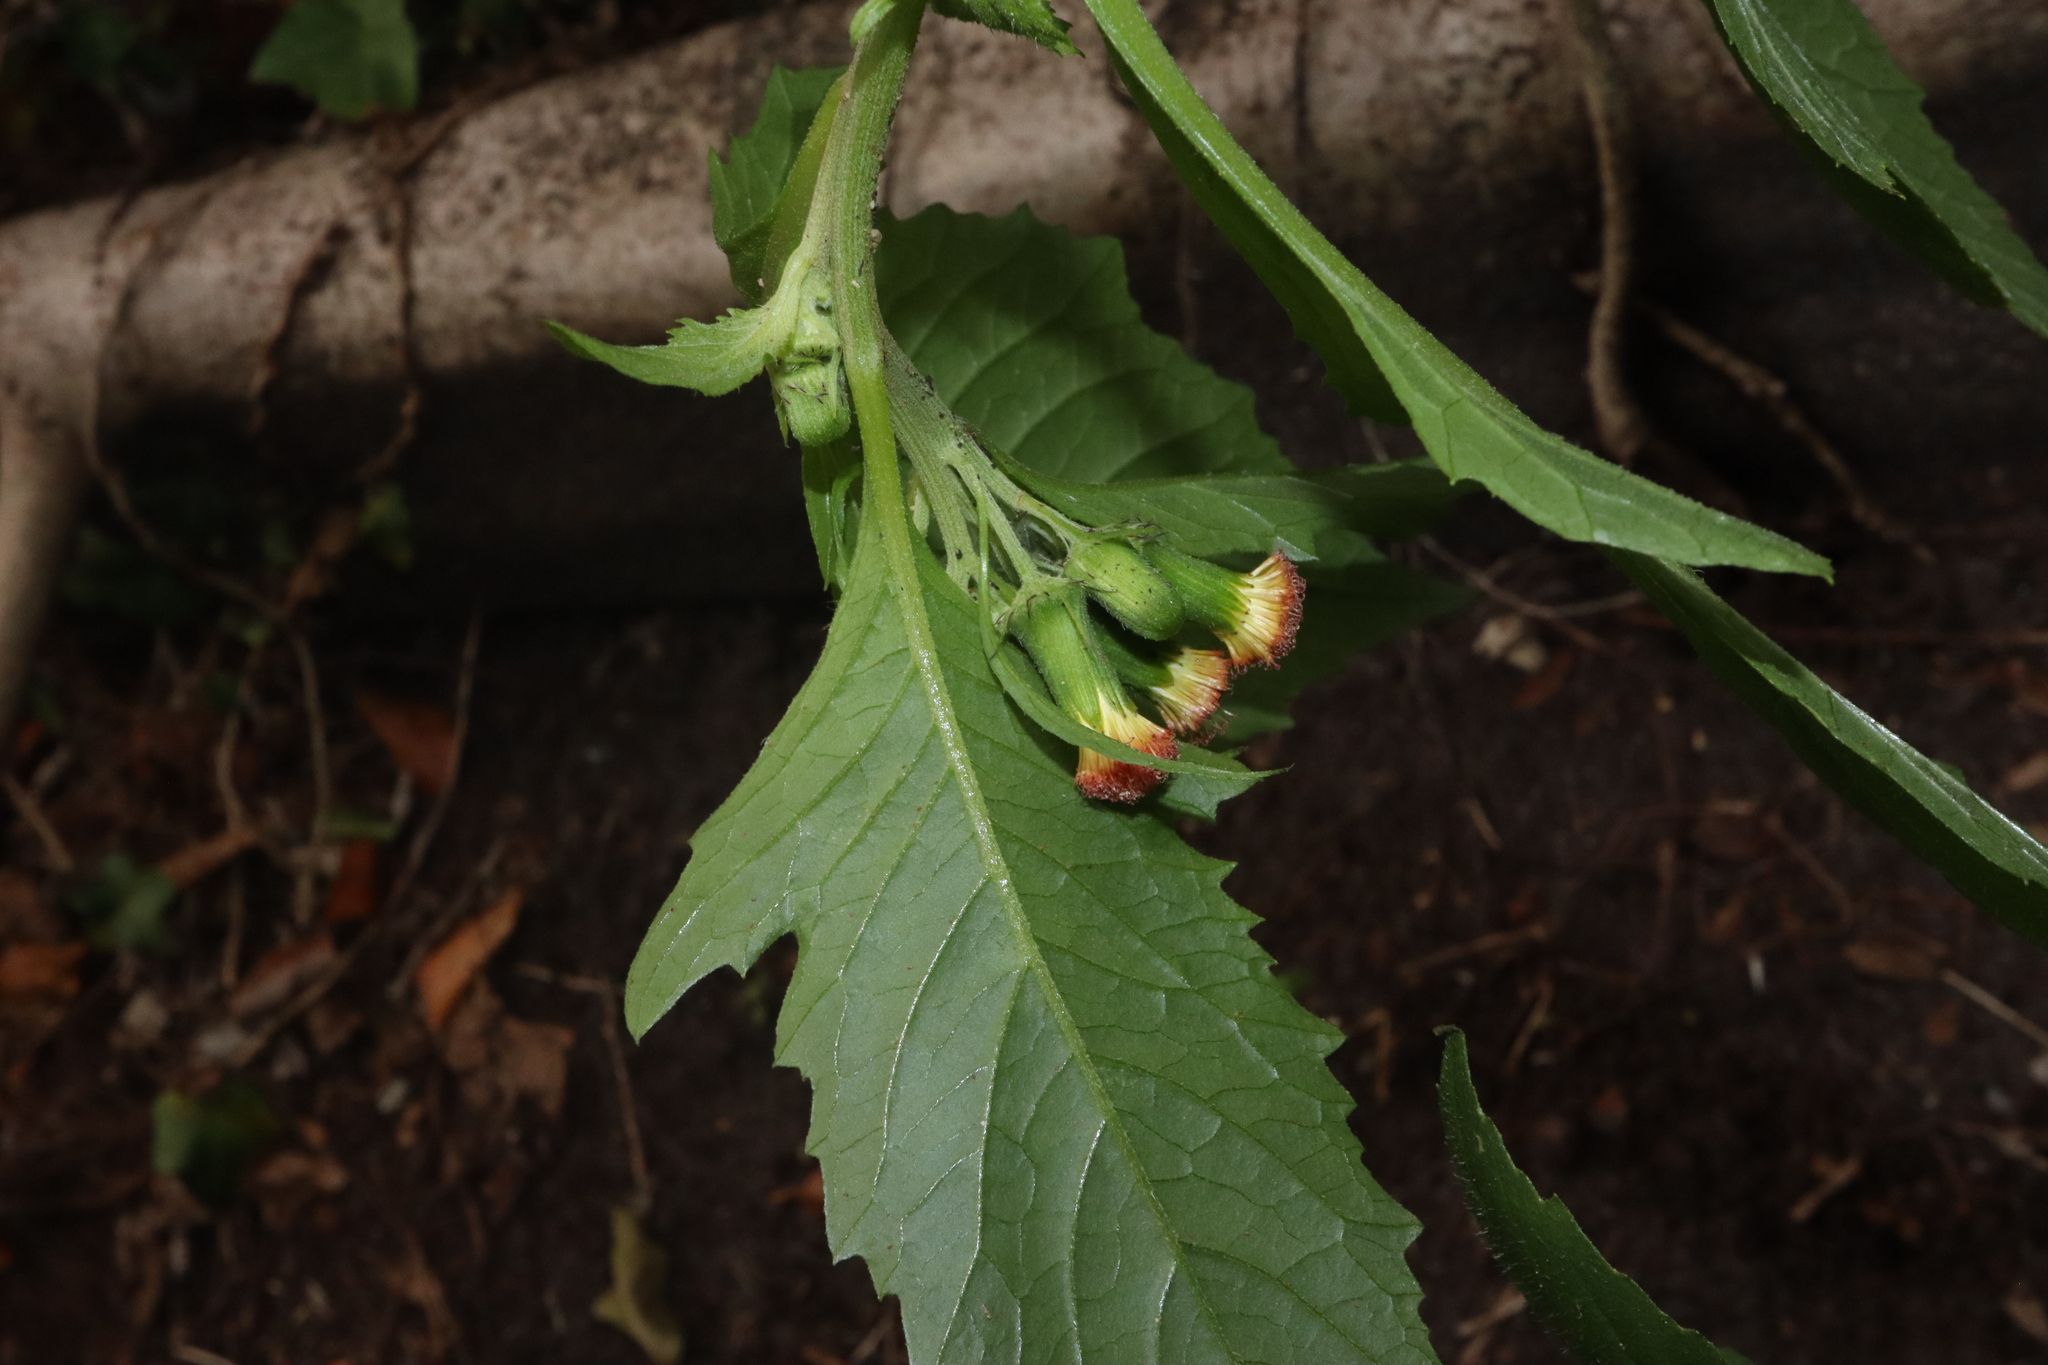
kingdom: Plantae
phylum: Tracheophyta
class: Magnoliopsida
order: Asterales
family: Asteraceae
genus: Crassocephalum
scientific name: Crassocephalum crepidioides
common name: Redflower ragleaf
